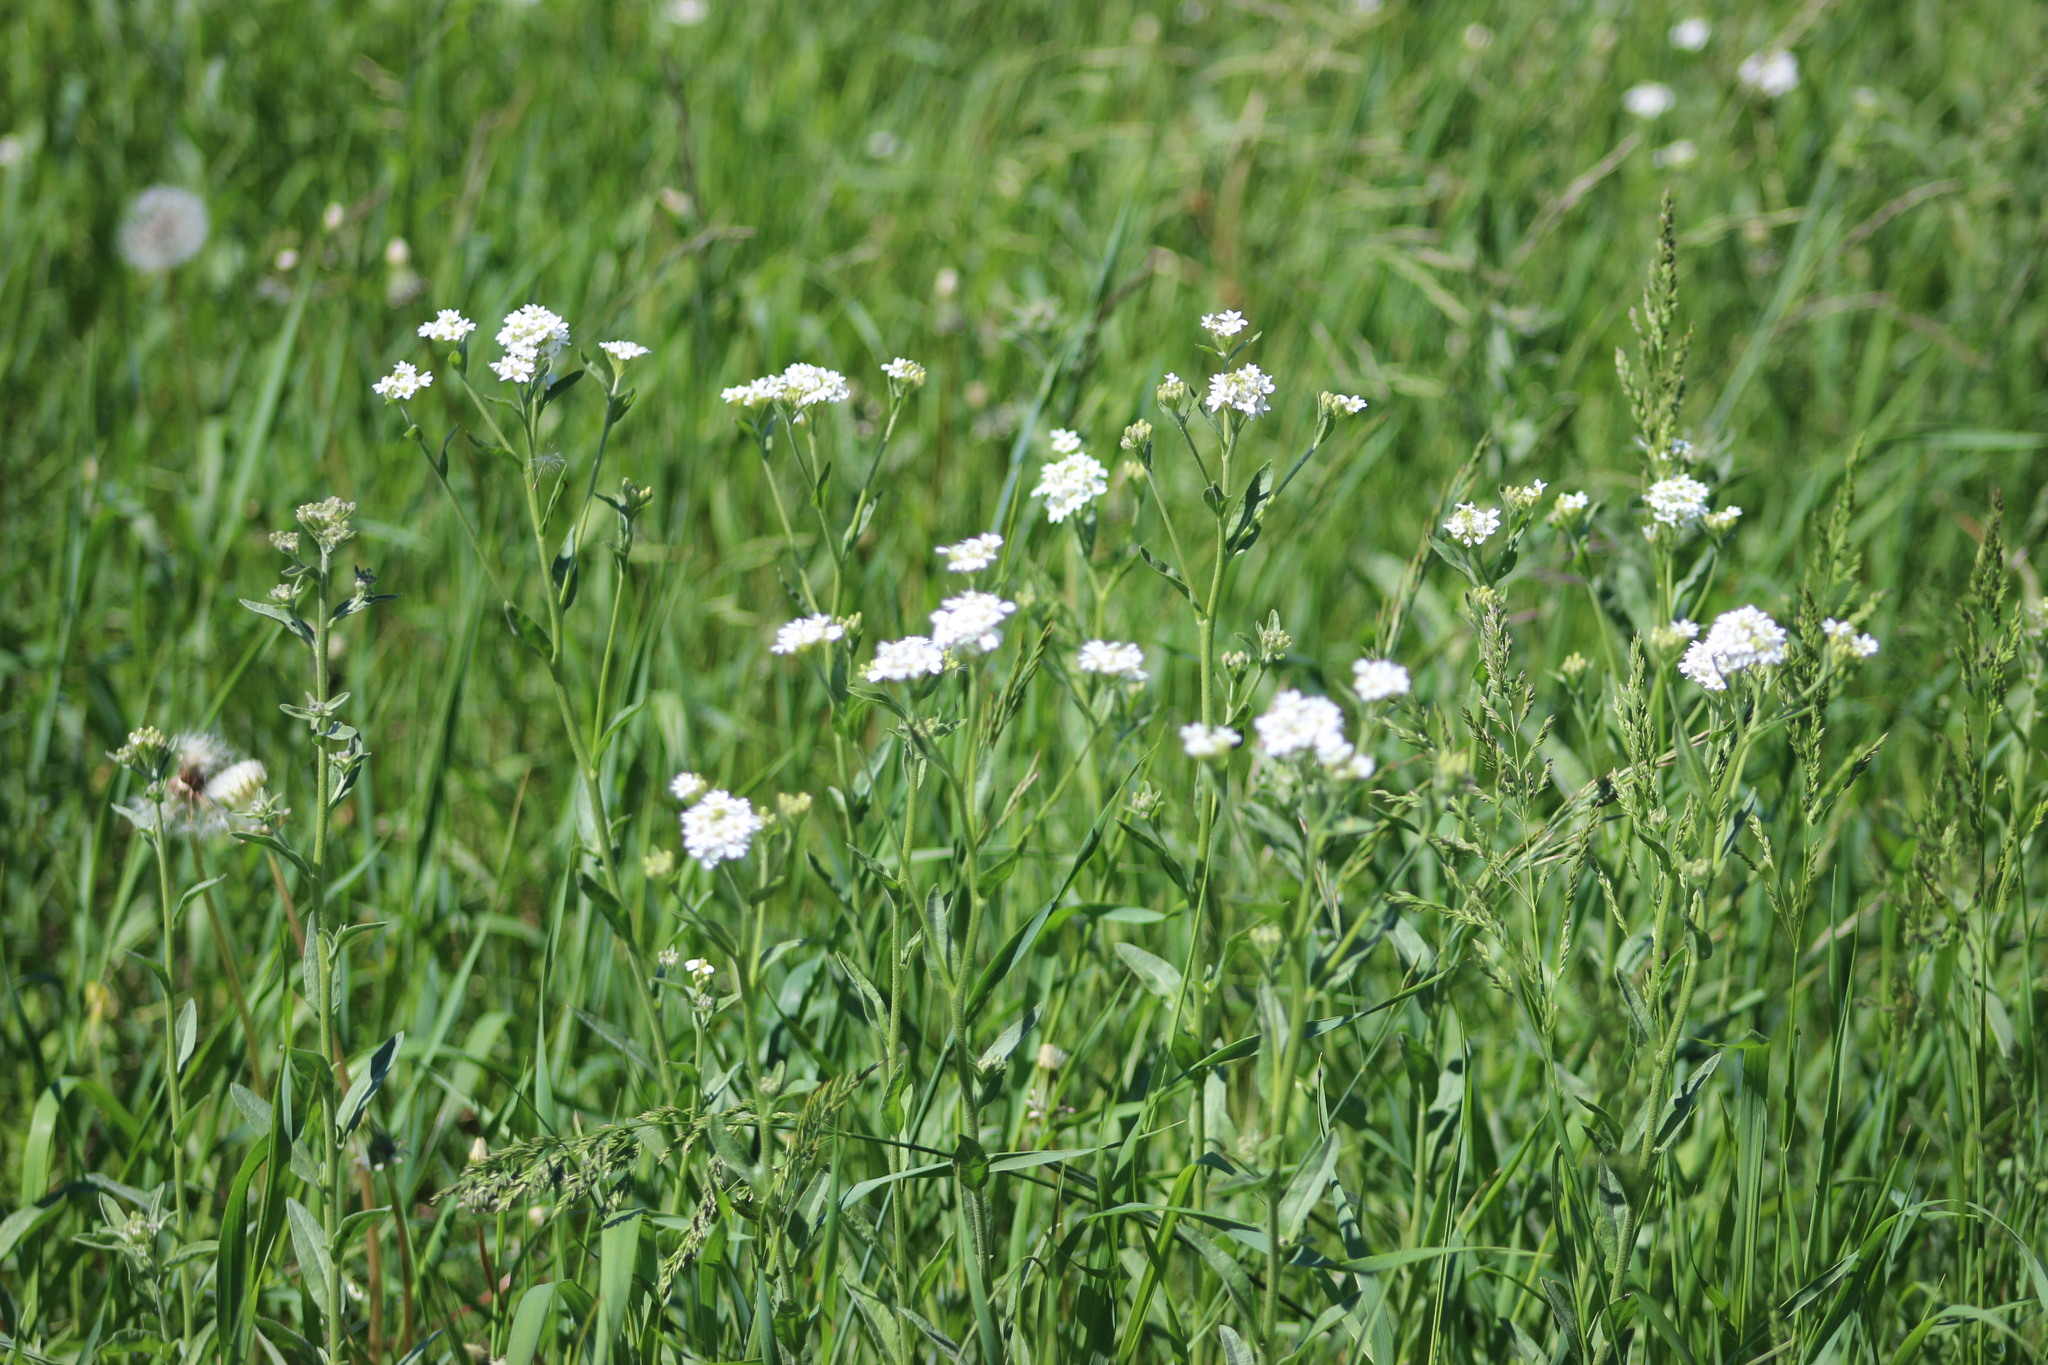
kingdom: Plantae
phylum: Tracheophyta
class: Magnoliopsida
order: Brassicales
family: Brassicaceae
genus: Berteroa
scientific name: Berteroa incana
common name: Hoary alison
